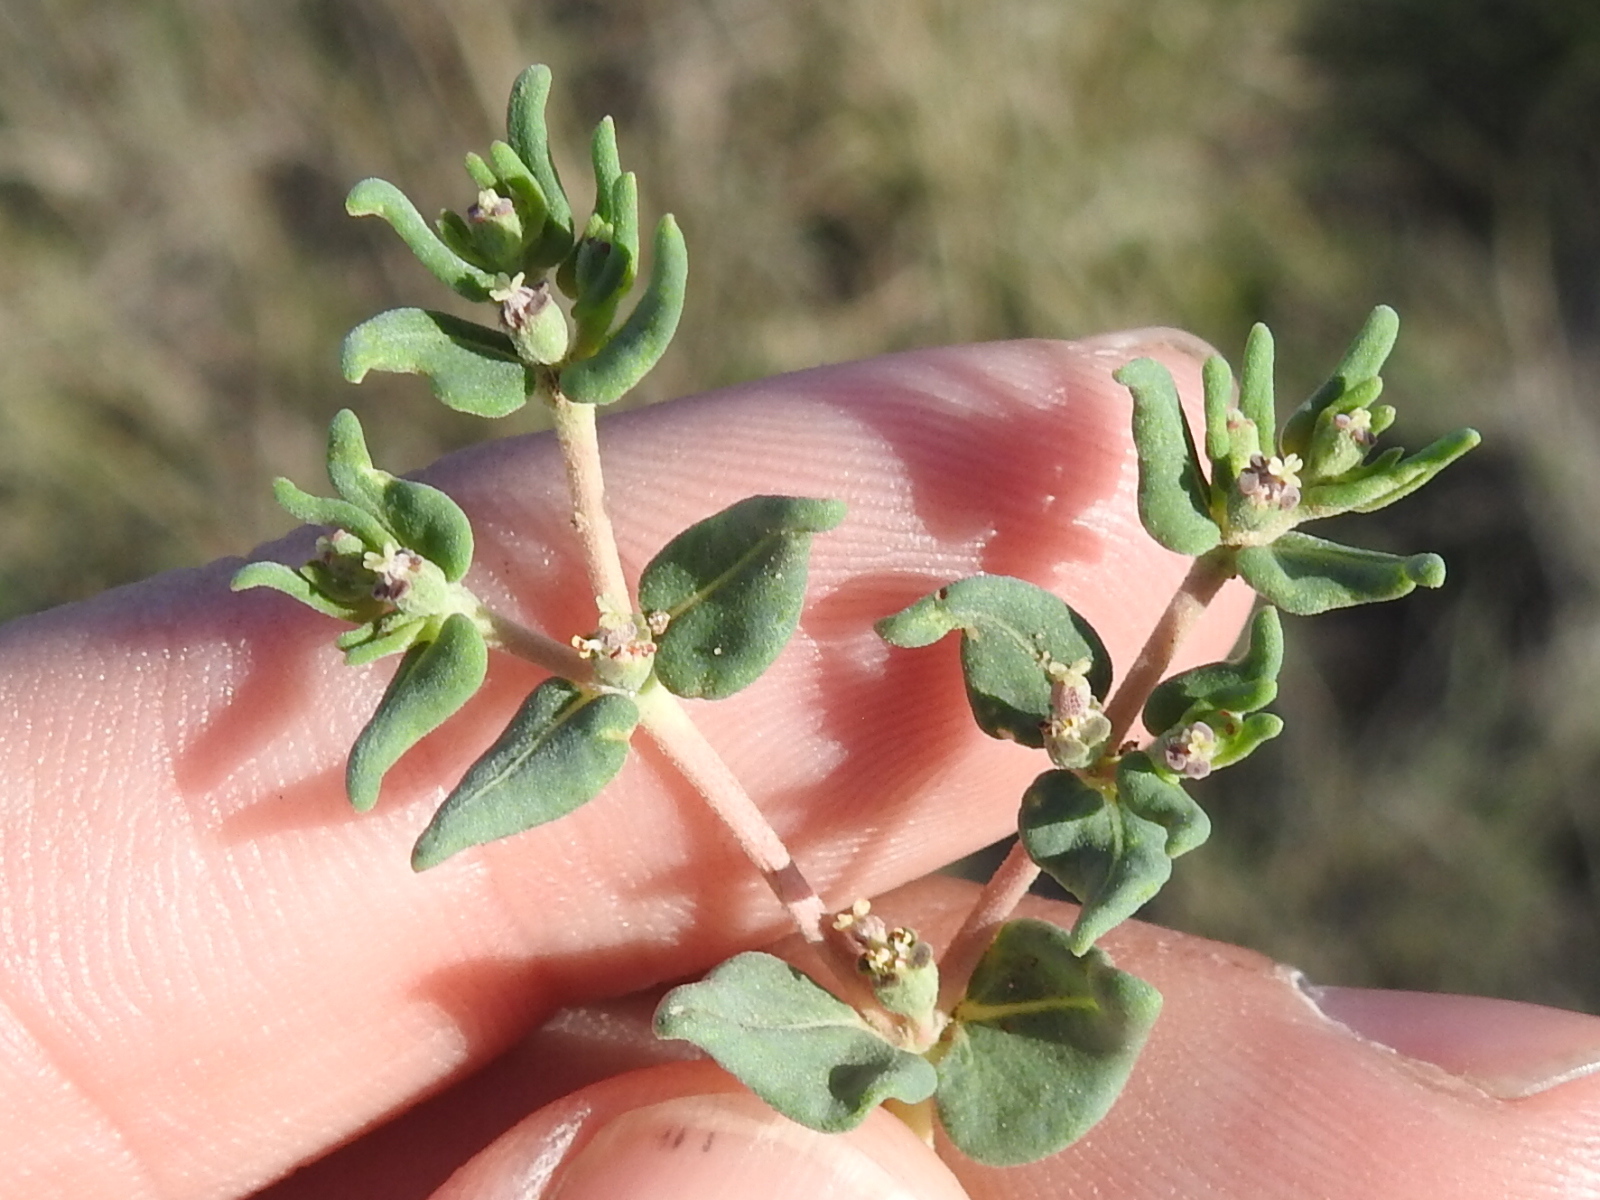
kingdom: Plantae
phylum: Tracheophyta
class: Magnoliopsida
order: Malpighiales
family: Euphorbiaceae
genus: Euphorbia
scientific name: Euphorbia lata
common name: Hoary euphorbia
